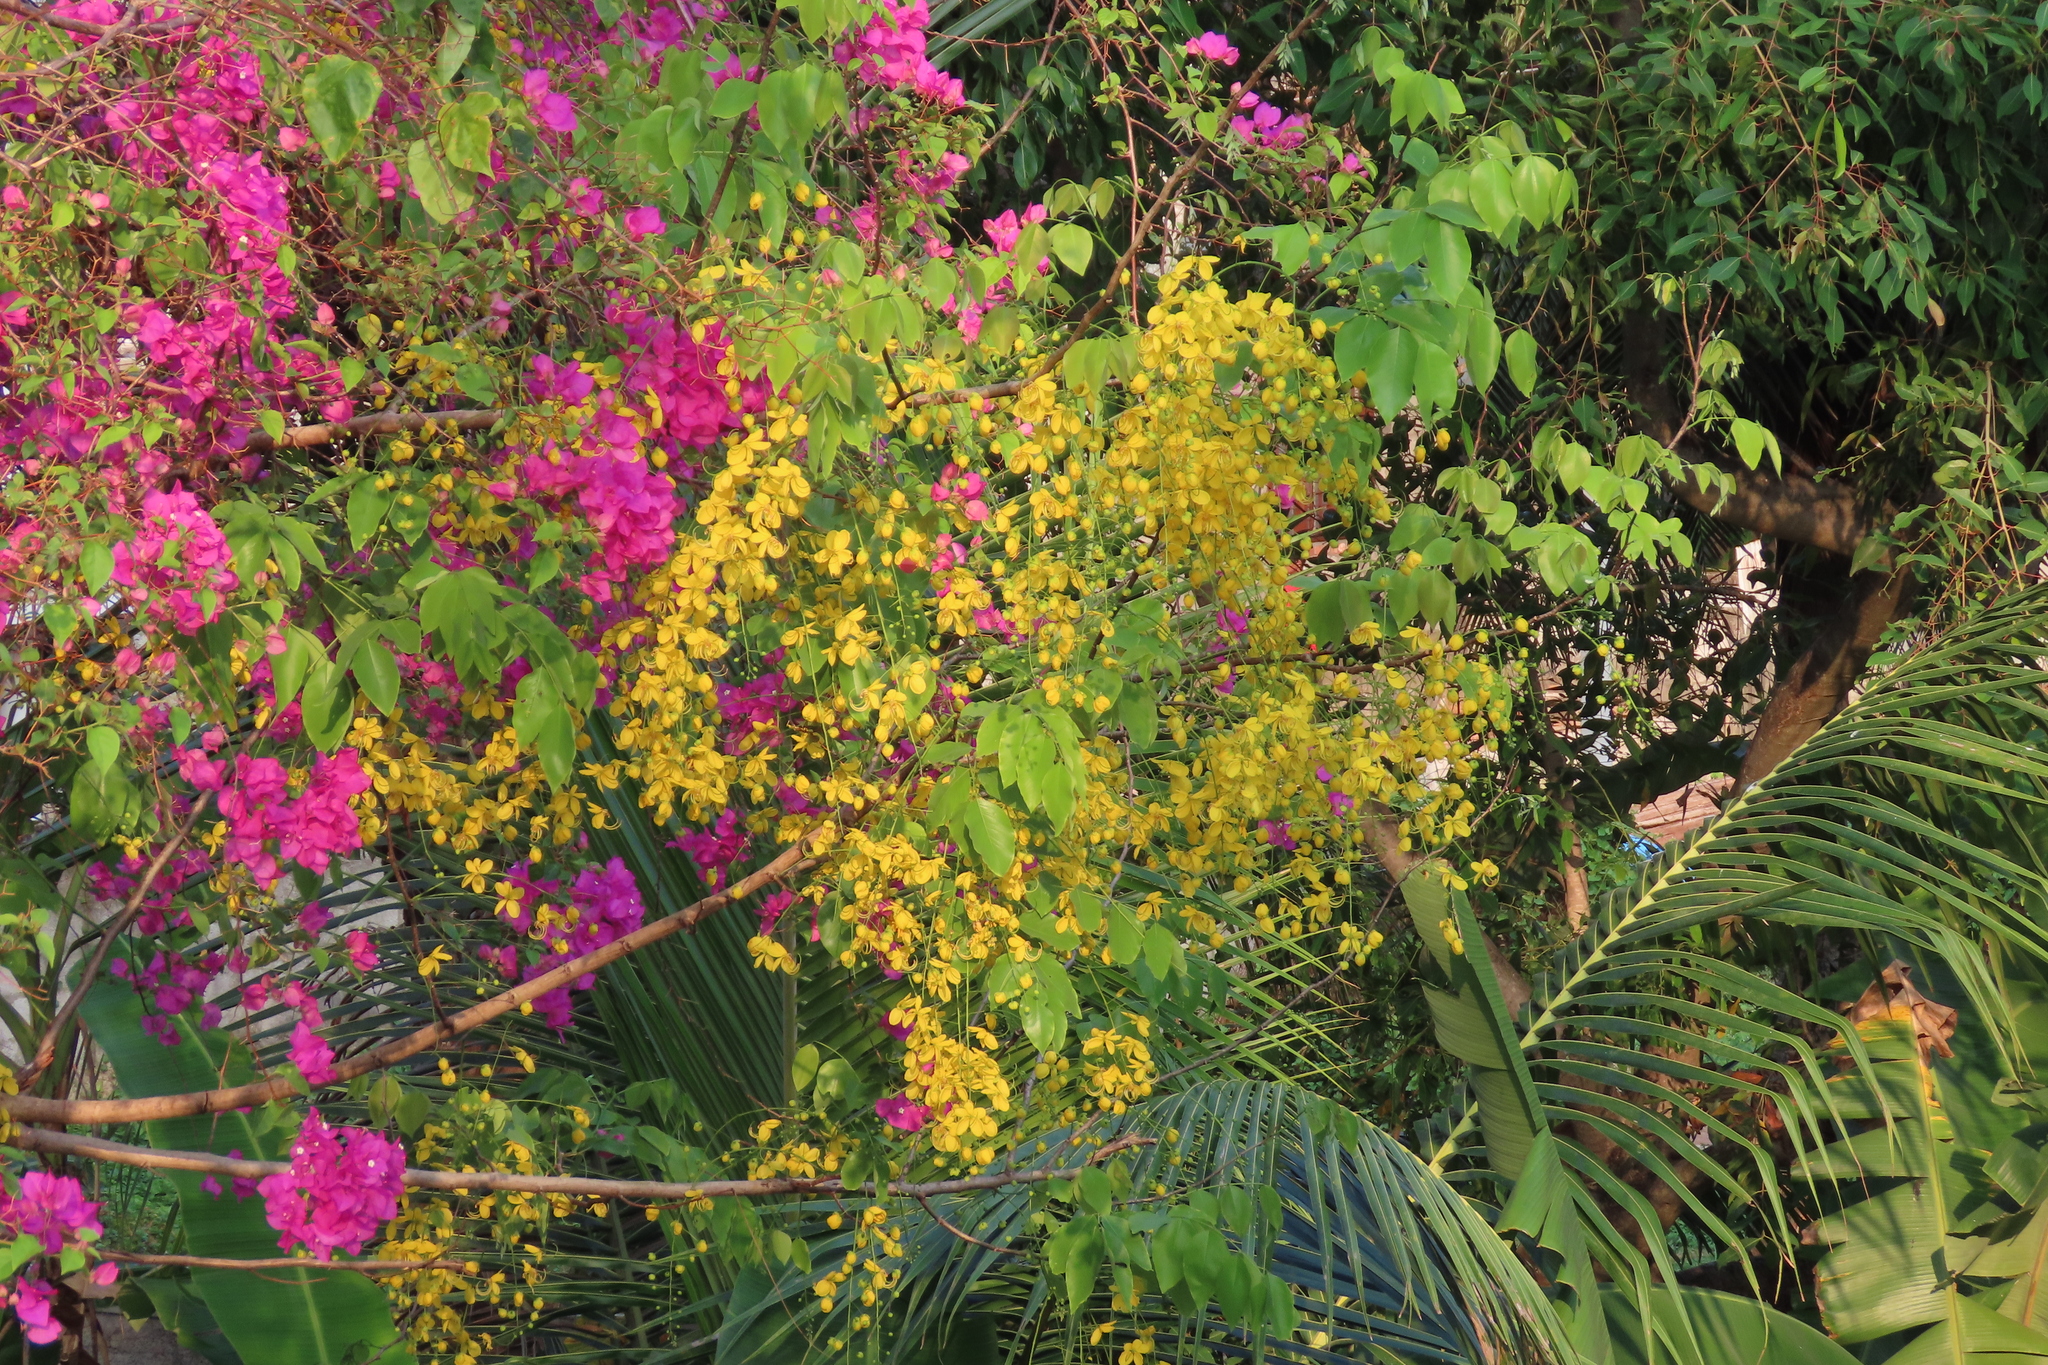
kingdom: Plantae
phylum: Tracheophyta
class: Magnoliopsida
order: Fabales
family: Fabaceae
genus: Cassia
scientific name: Cassia fistula
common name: Golden shower
